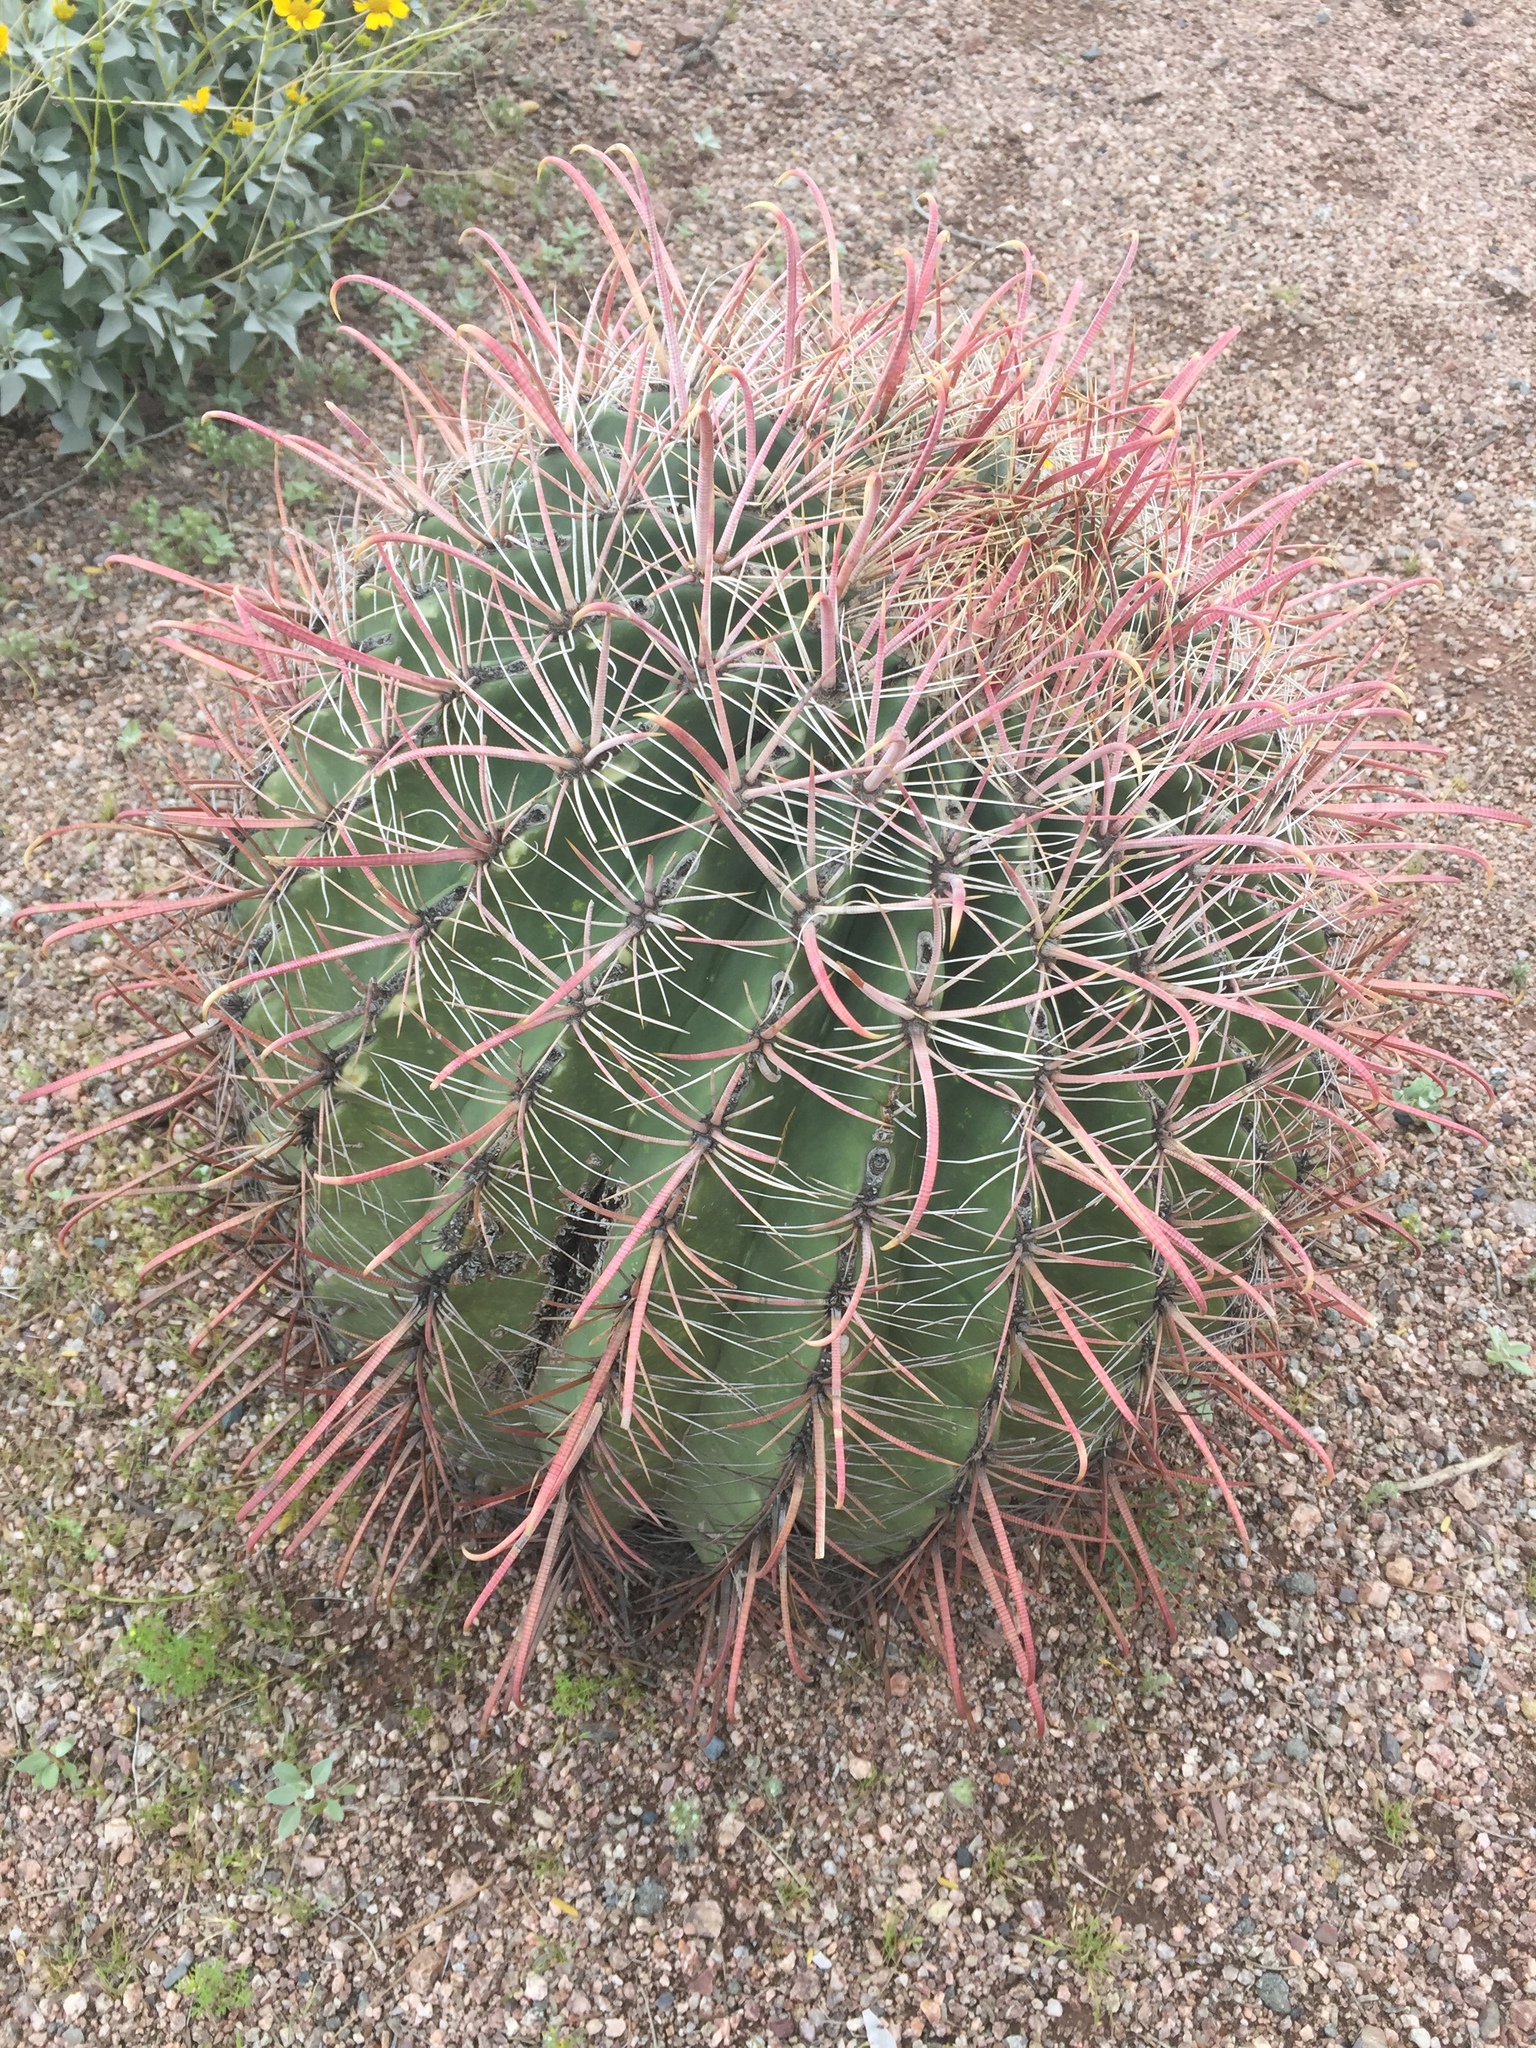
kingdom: Plantae
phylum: Tracheophyta
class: Magnoliopsida
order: Caryophyllales
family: Cactaceae
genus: Ferocactus
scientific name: Ferocactus wislizeni
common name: Candy barrel cactus
